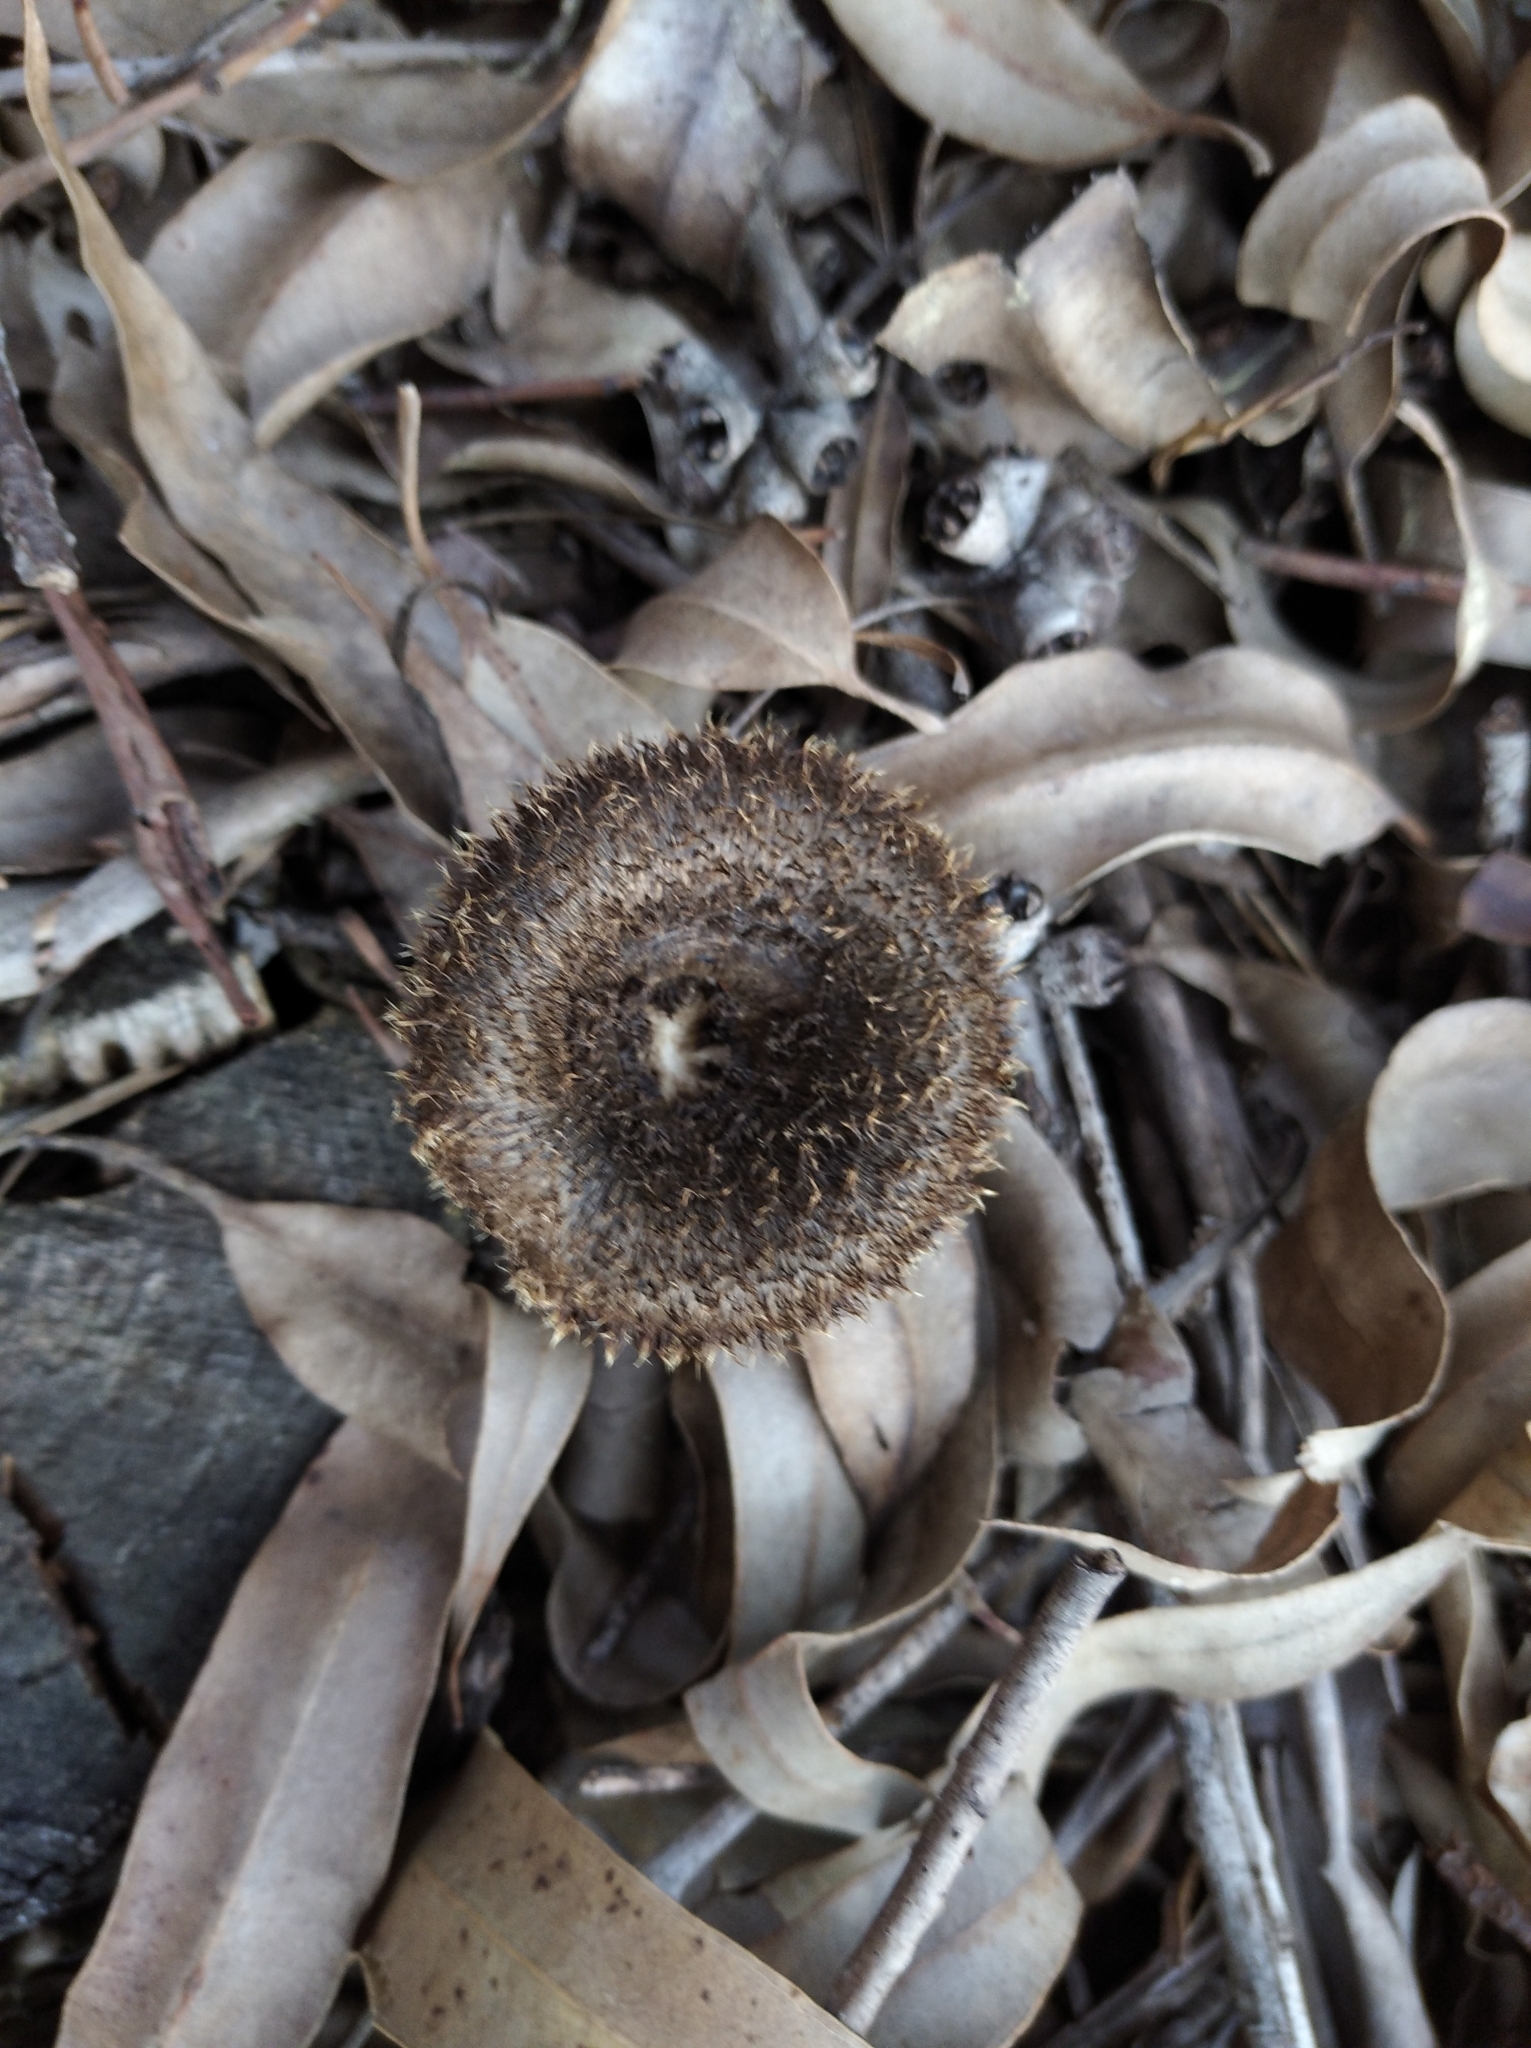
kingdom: Fungi
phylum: Basidiomycota
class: Agaricomycetes
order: Polyporales
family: Polyporaceae
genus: Lentinus
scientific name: Lentinus berteroi
